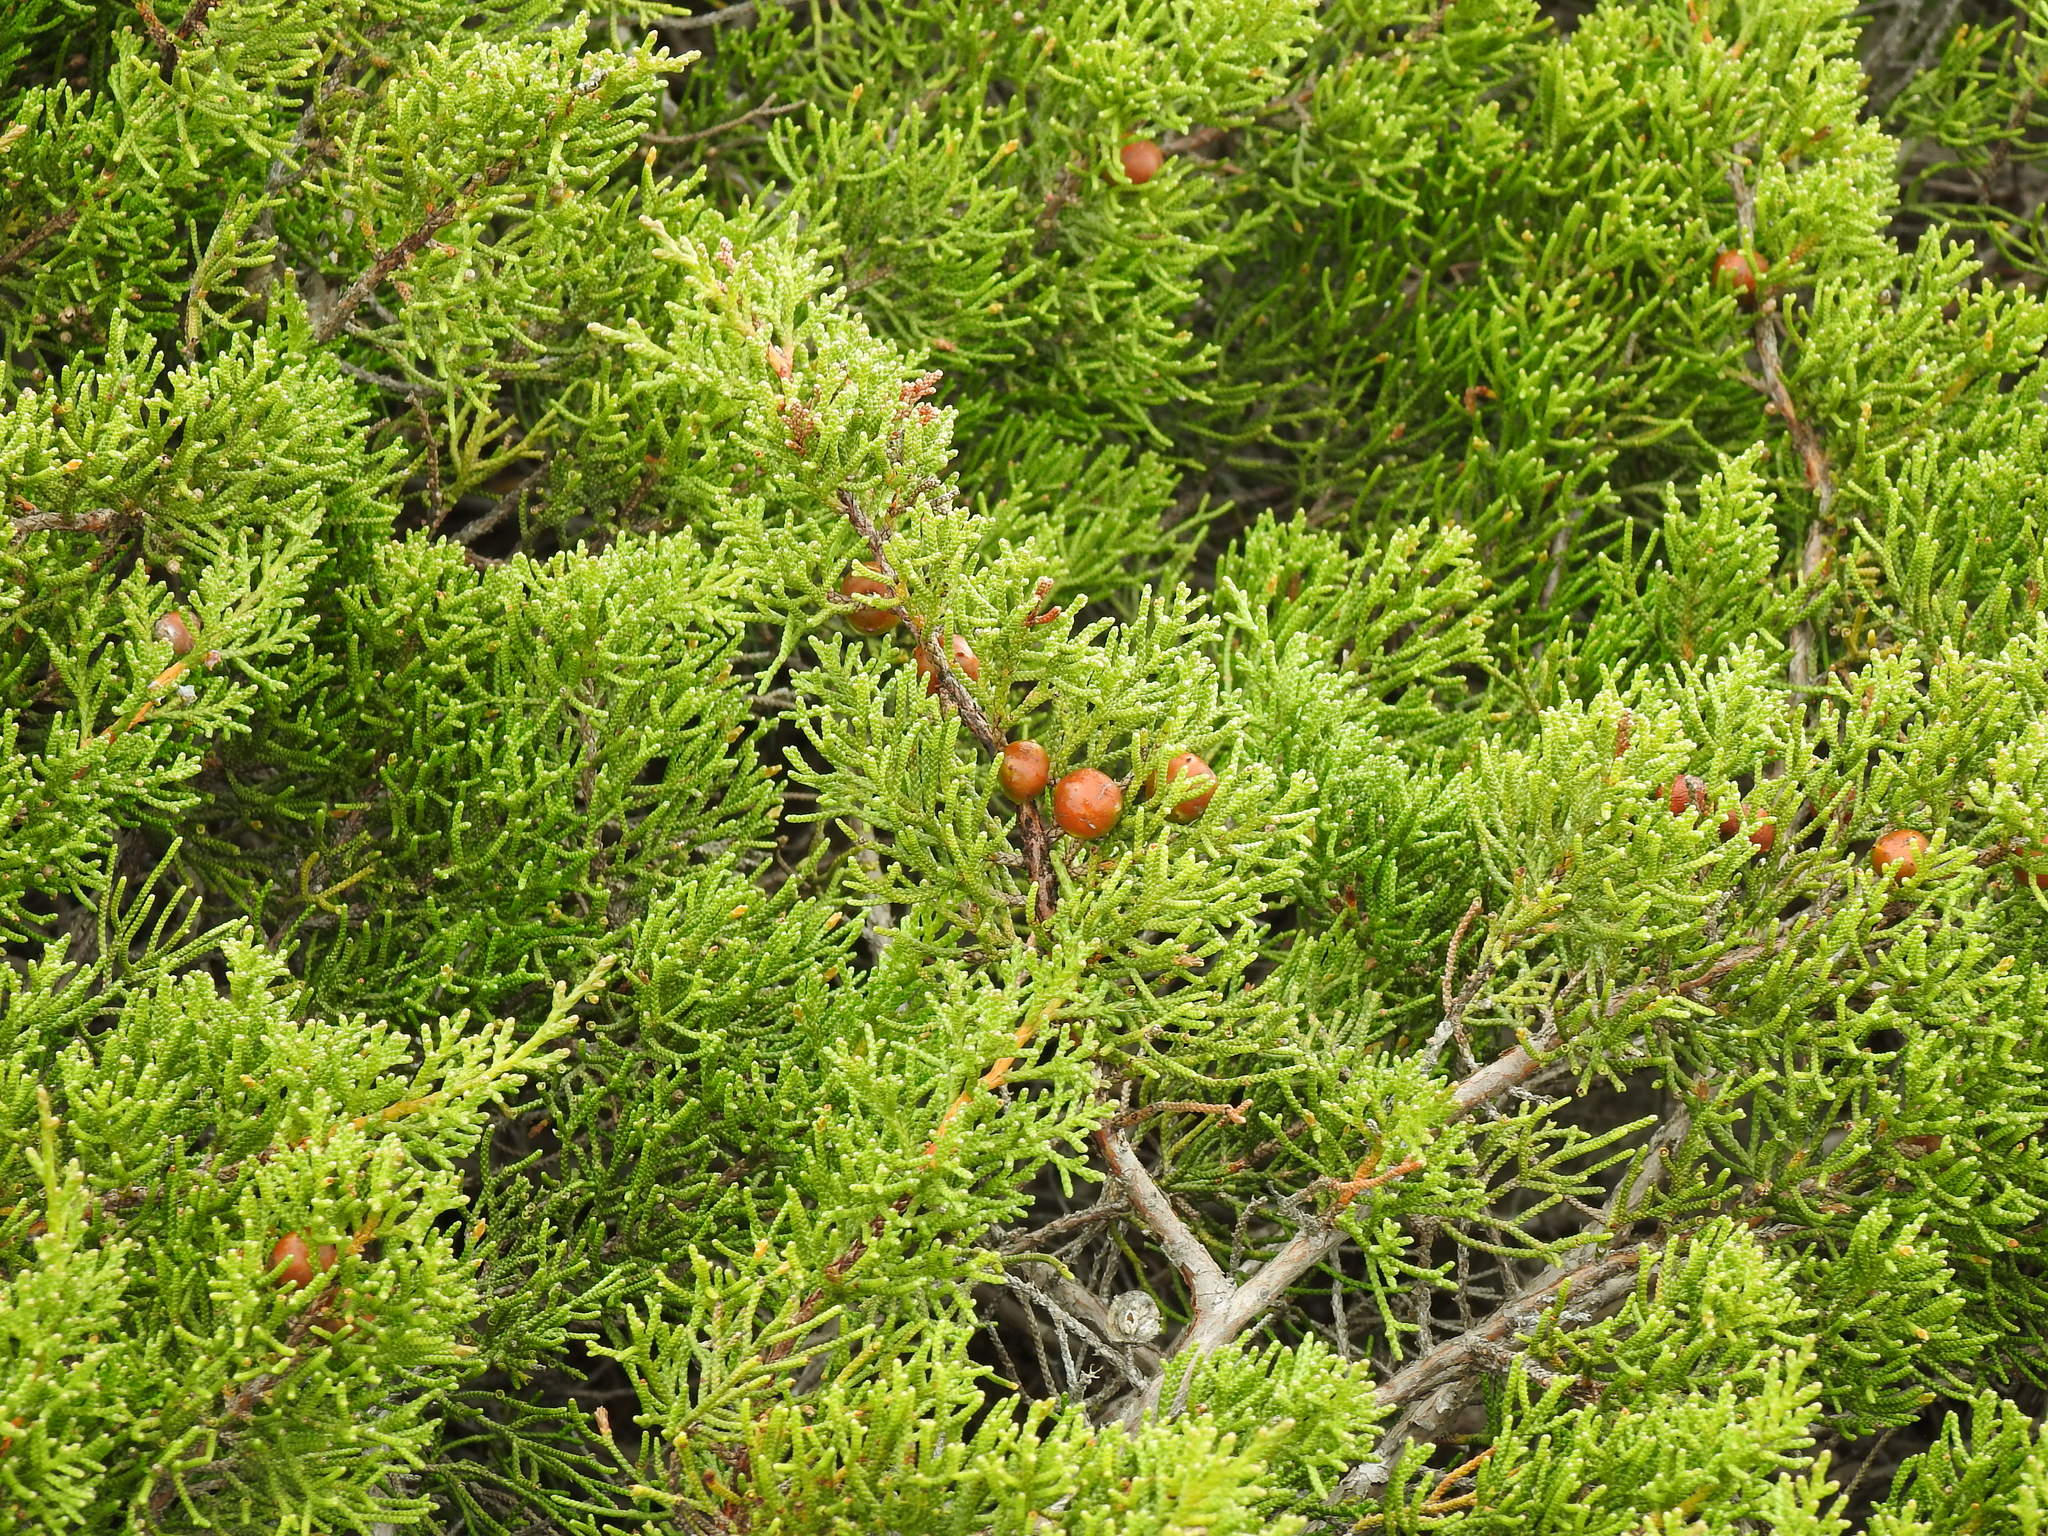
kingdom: Plantae
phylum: Tracheophyta
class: Pinopsida
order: Pinales
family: Cupressaceae
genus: Juniperus
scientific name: Juniperus phoenicea
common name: Phoenician juniper
